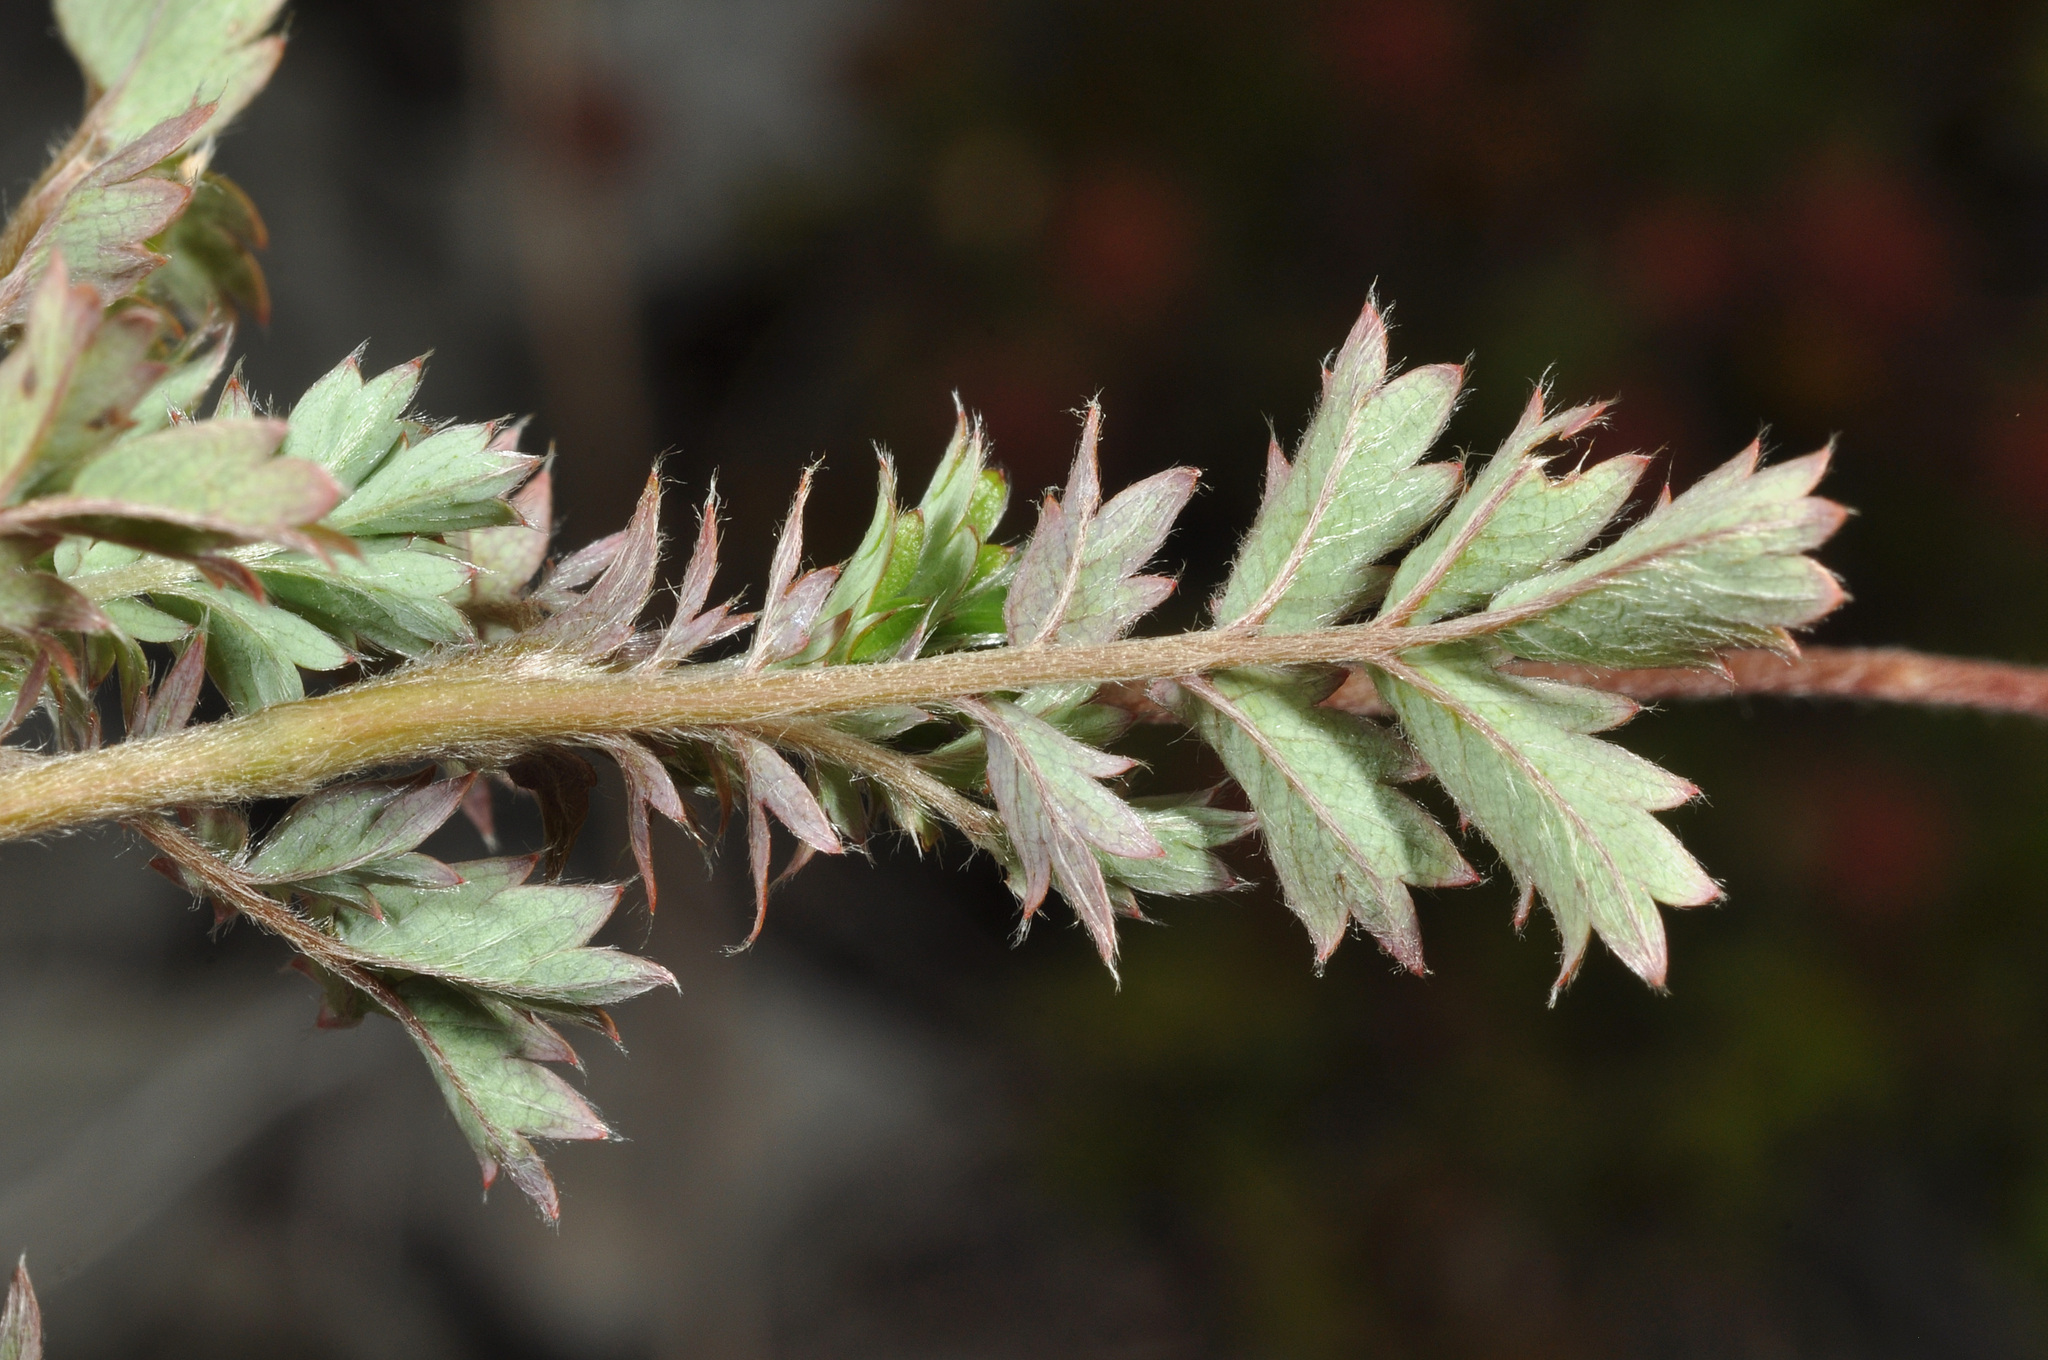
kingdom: Plantae
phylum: Tracheophyta
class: Magnoliopsida
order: Rosales
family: Rosaceae
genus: Acaena
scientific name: Acaena anserinifolia
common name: Bronze pirri-pirri-bur
